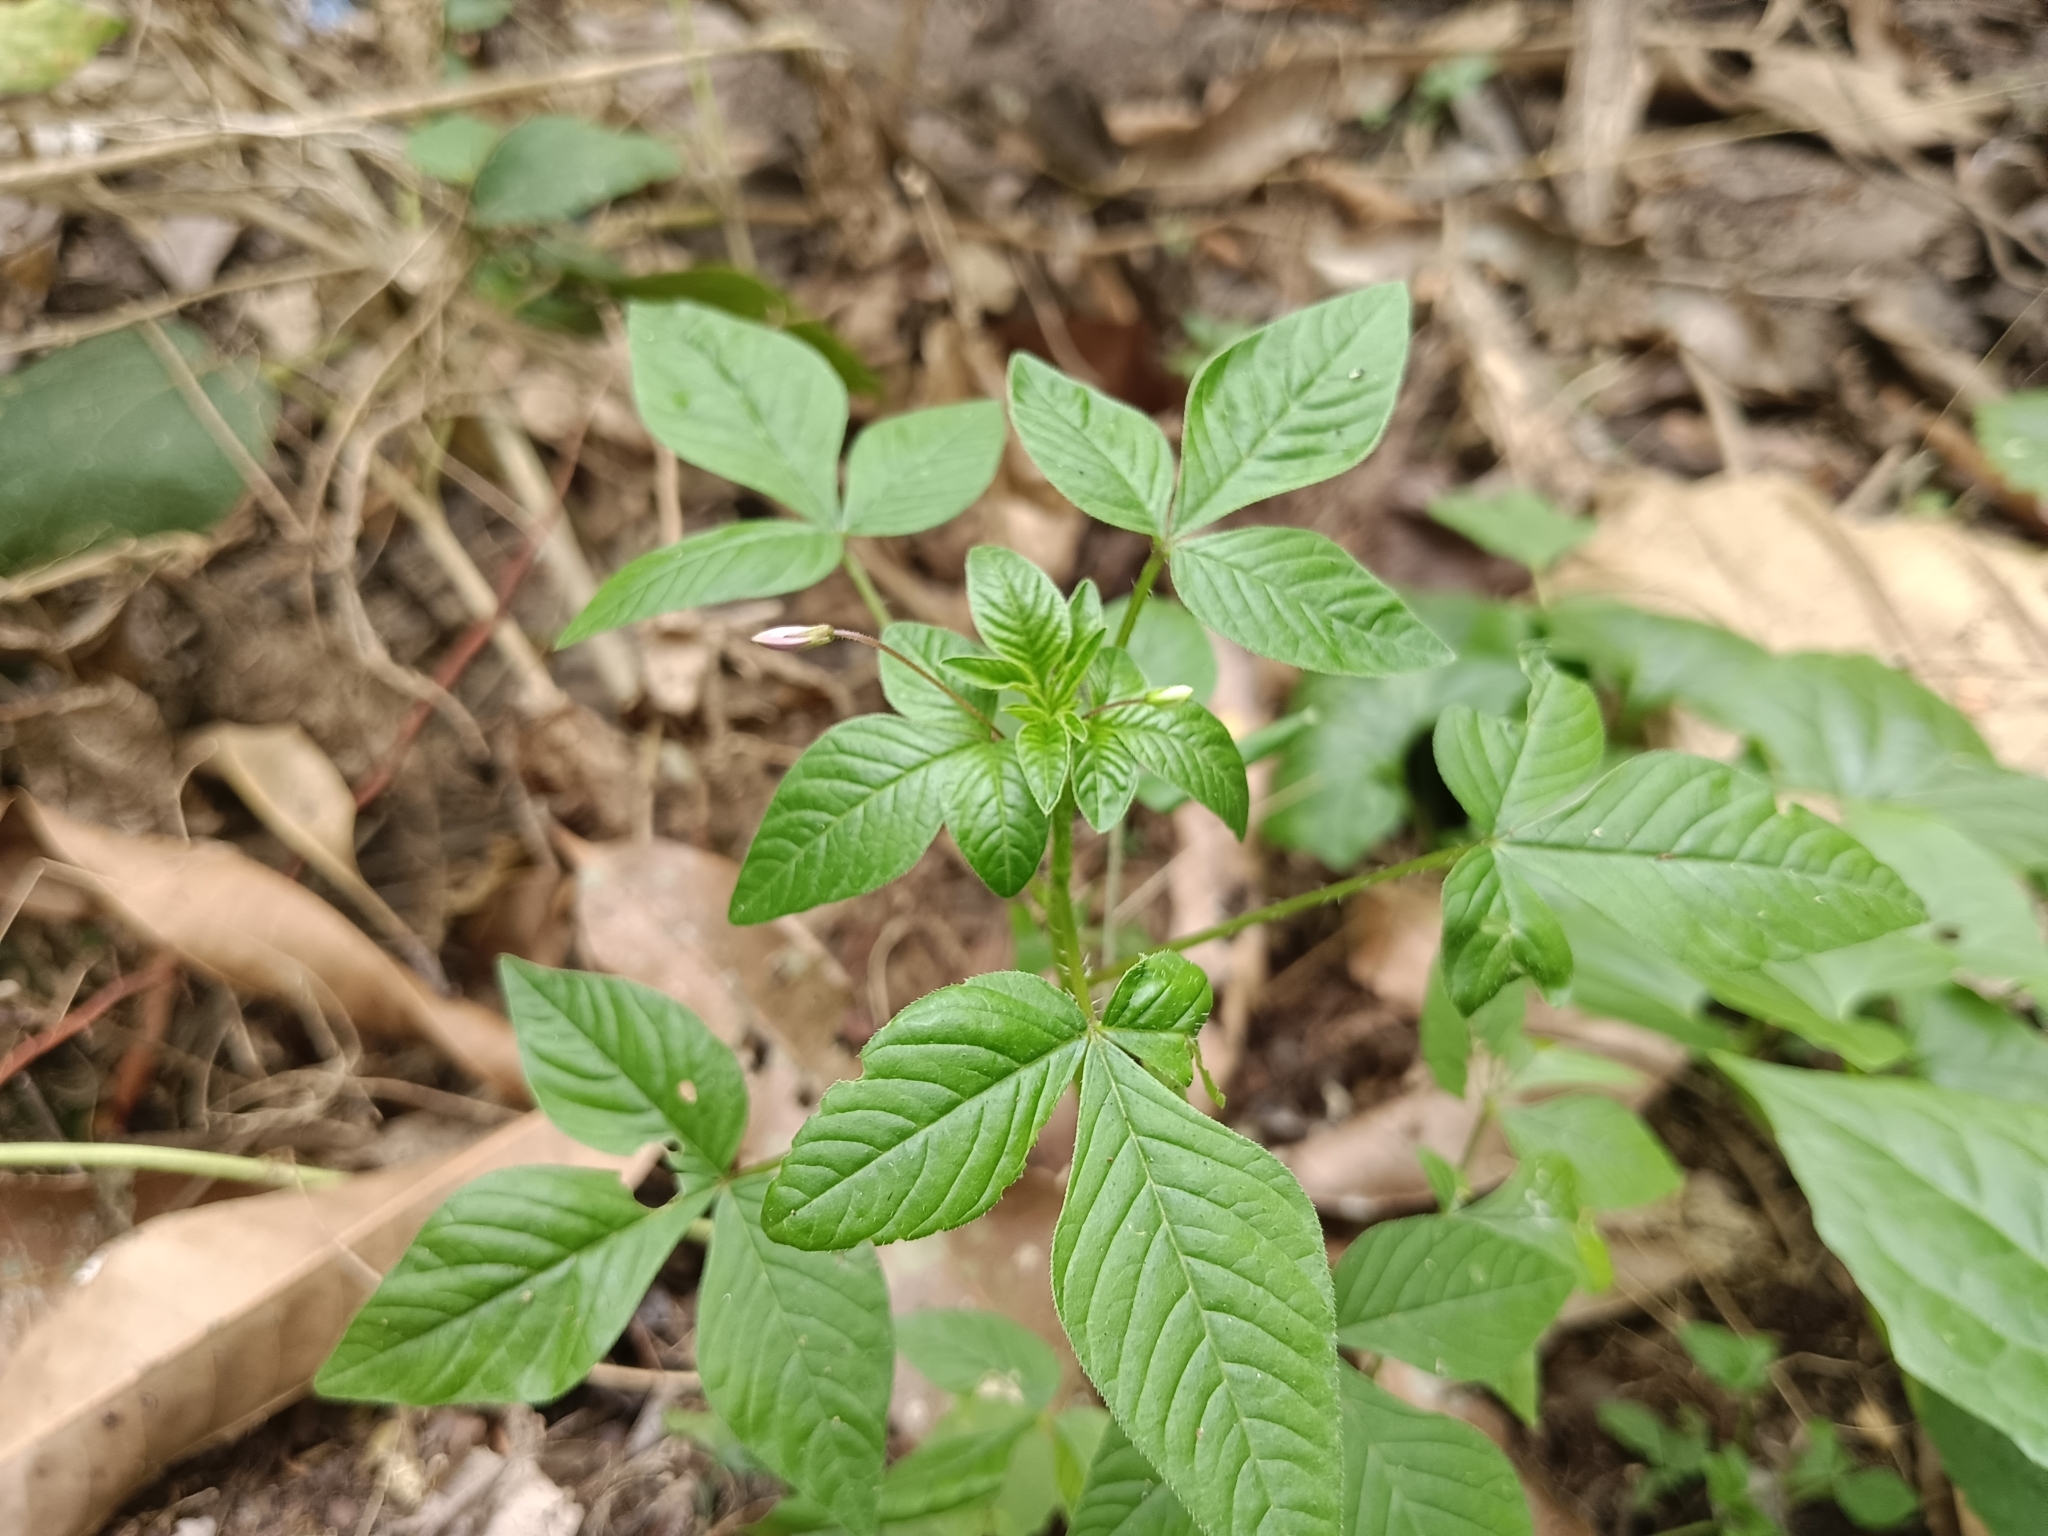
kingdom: Plantae
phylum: Tracheophyta
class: Magnoliopsida
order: Brassicales
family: Cleomaceae
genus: Sieruela
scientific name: Sieruela rutidosperma
